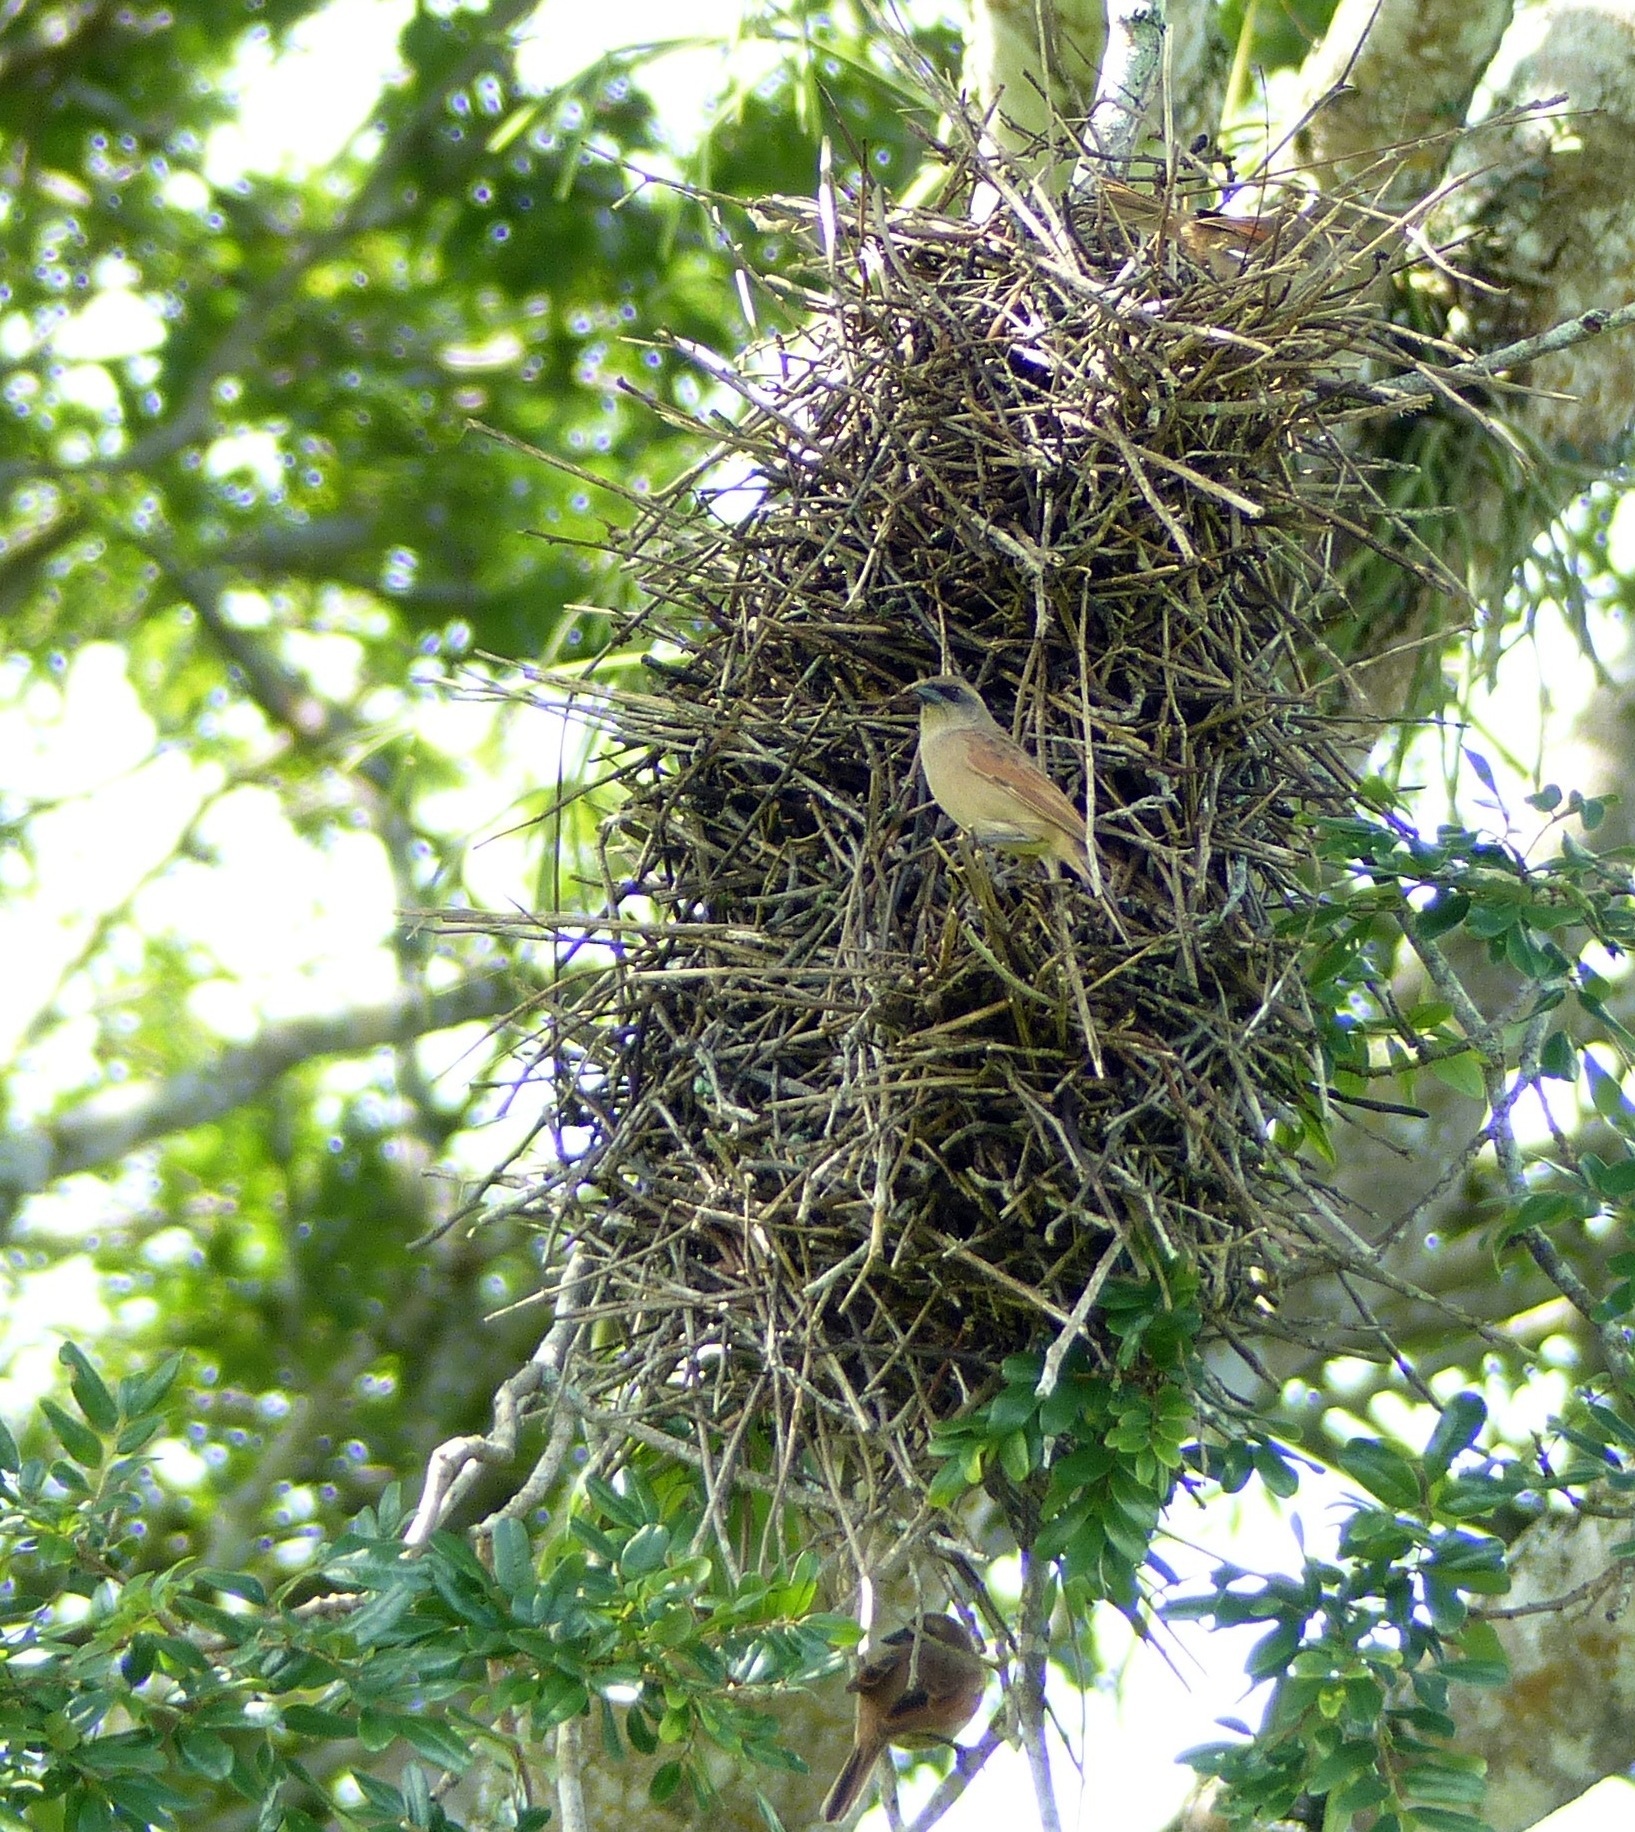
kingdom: Animalia
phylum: Chordata
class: Aves
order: Passeriformes
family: Icteridae
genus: Agelaioides
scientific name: Agelaioides badius
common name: Baywing
